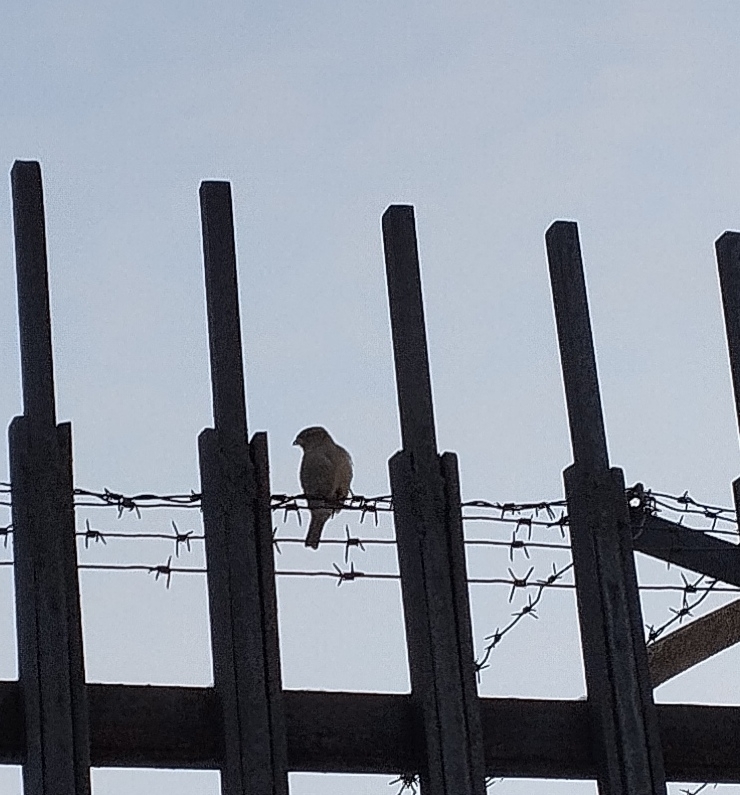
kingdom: Animalia
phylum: Chordata
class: Aves
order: Passeriformes
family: Passeridae
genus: Passer
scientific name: Passer domesticus
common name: House sparrow
